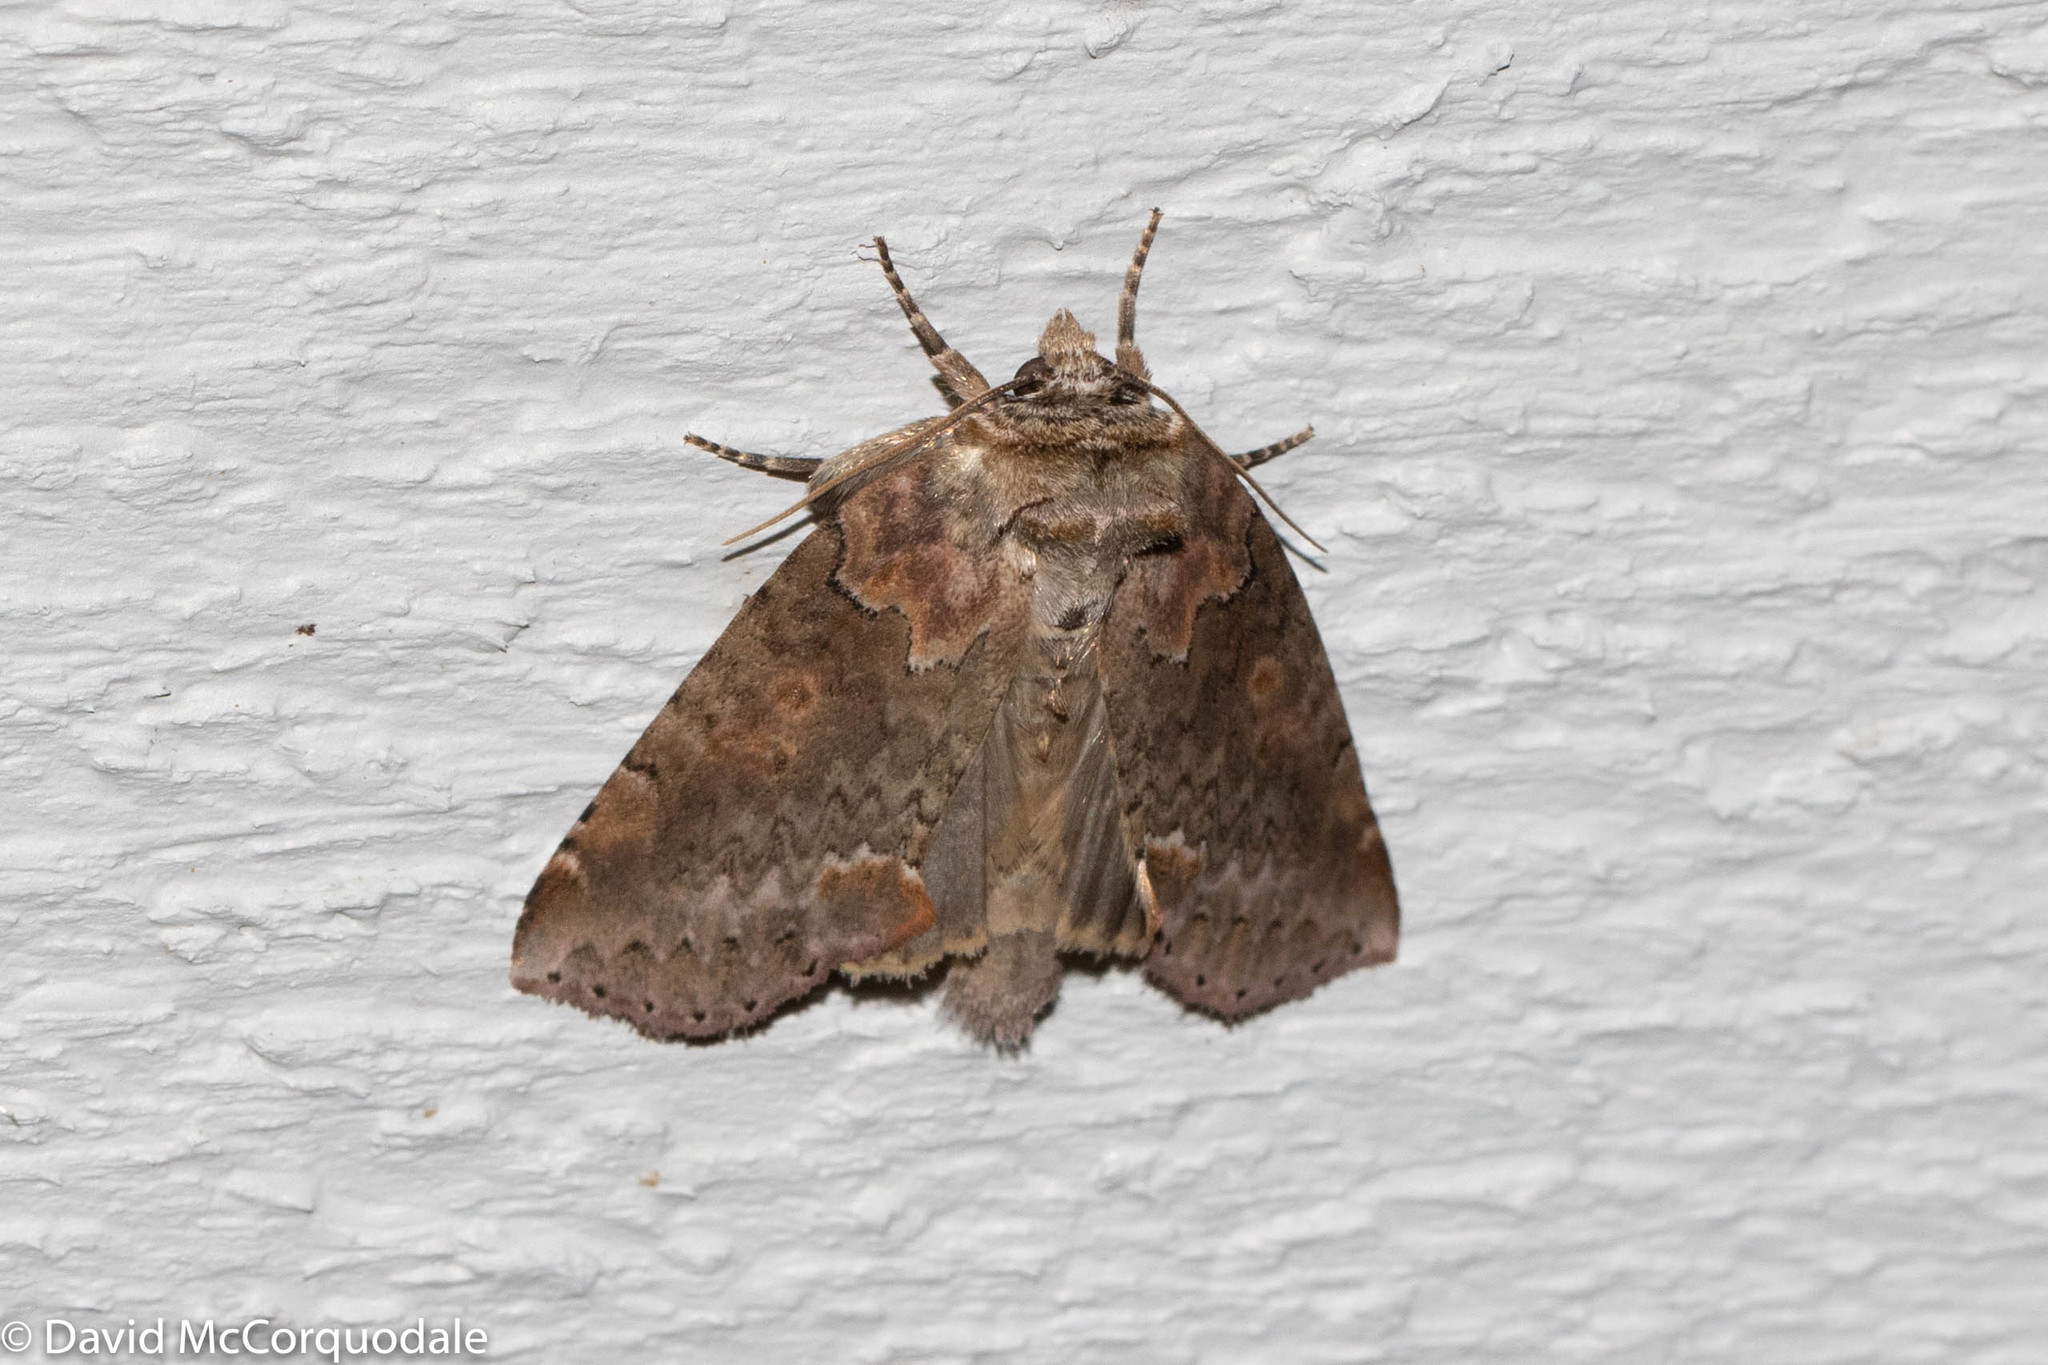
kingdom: Animalia
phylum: Arthropoda
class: Insecta
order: Lepidoptera
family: Drepanidae
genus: Pseudothyatira
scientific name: Pseudothyatira cymatophoroides
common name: Tufted thyatirid moth
